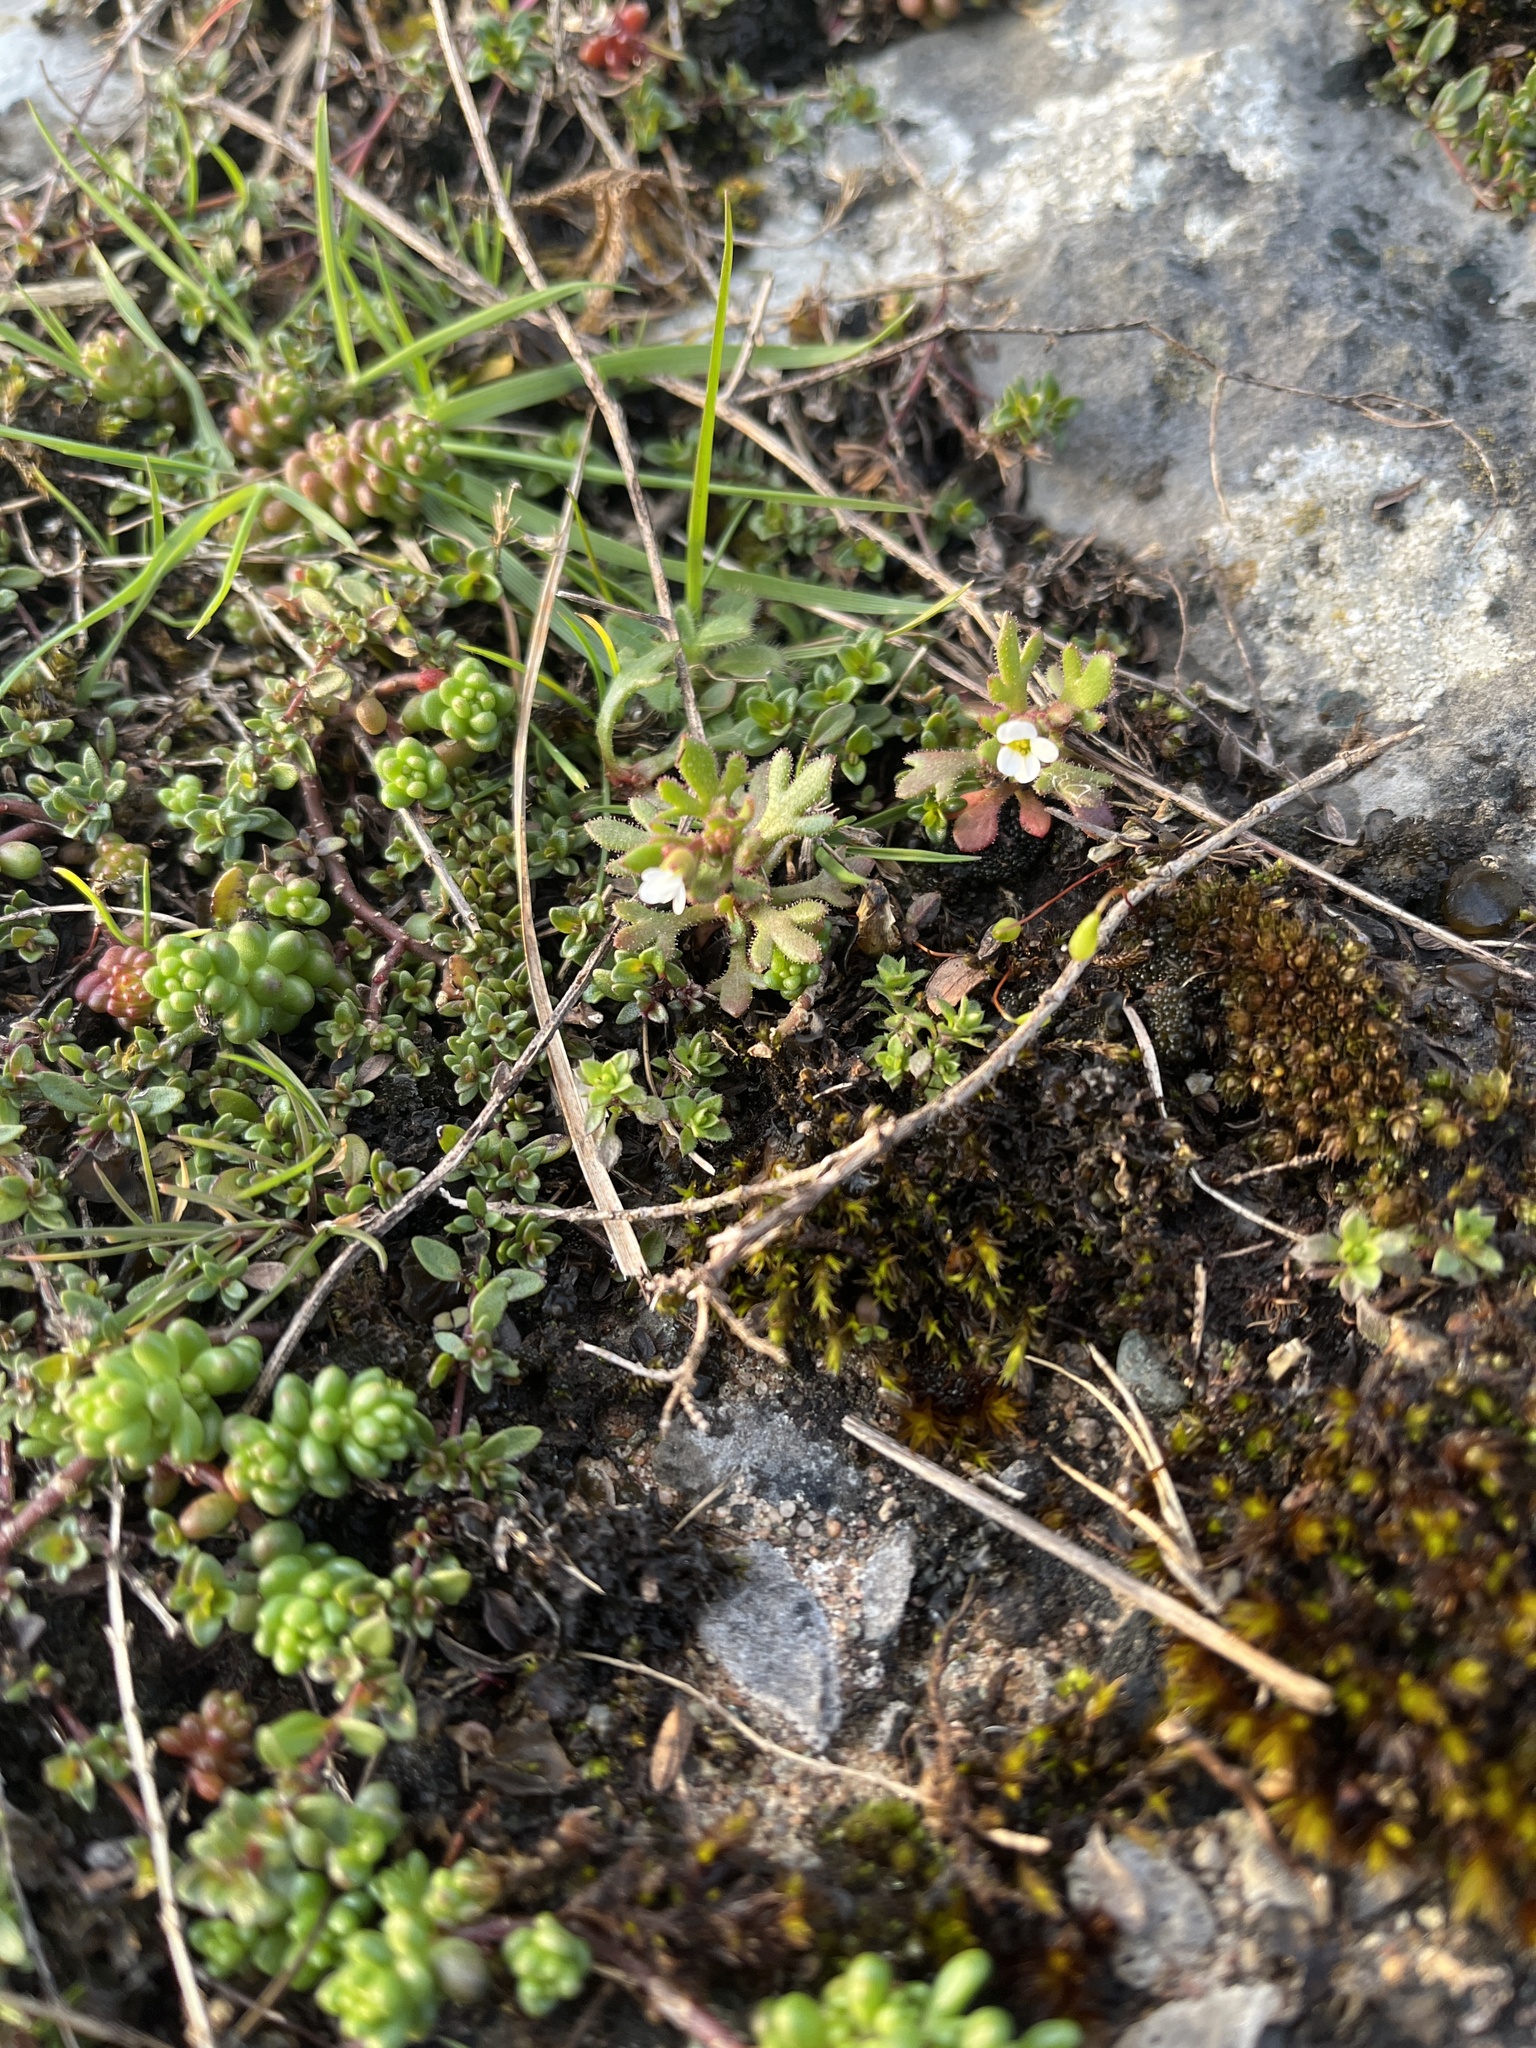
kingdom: Plantae
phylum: Tracheophyta
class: Magnoliopsida
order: Saxifragales
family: Saxifragaceae
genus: Saxifraga
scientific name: Saxifraga tridactylites
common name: Rue-leaved saxifrage
